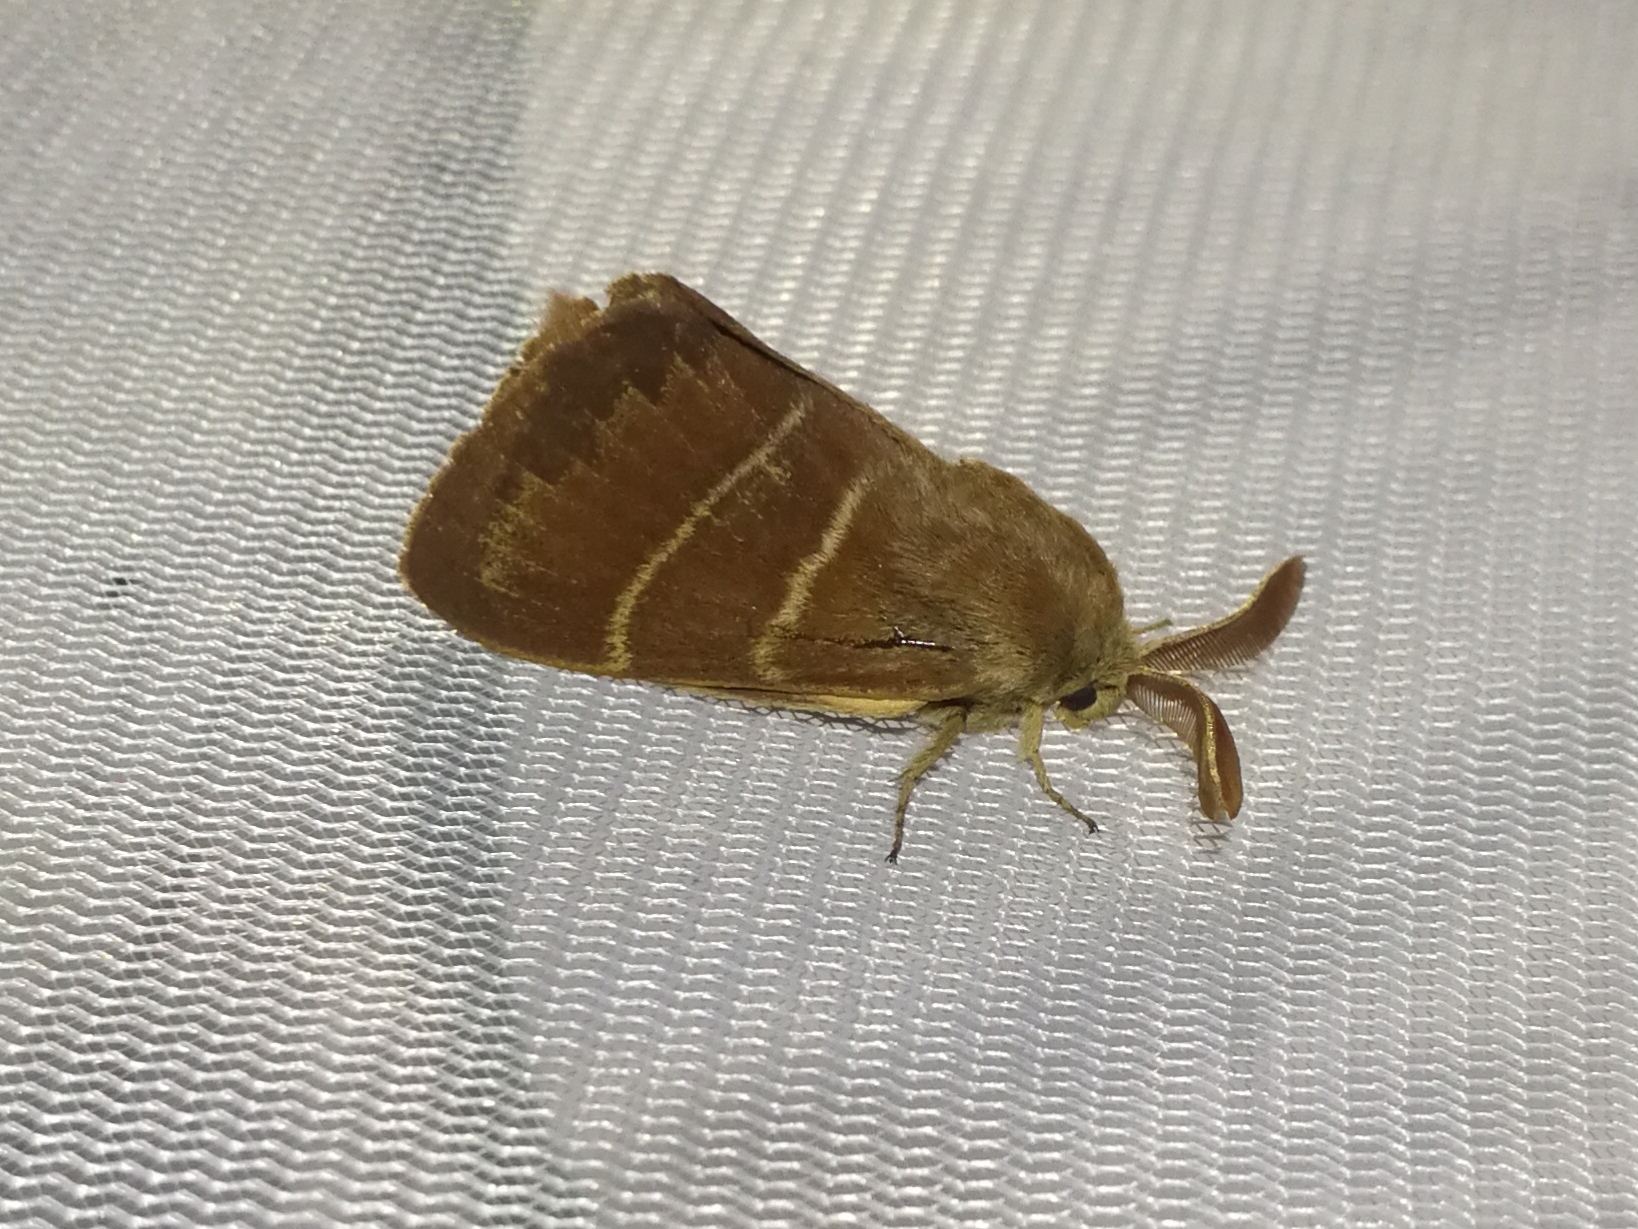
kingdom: Animalia
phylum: Arthropoda
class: Insecta
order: Lepidoptera
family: Lasiocampidae
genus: Macrothylacia
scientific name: Macrothylacia rubi
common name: Fox moth
